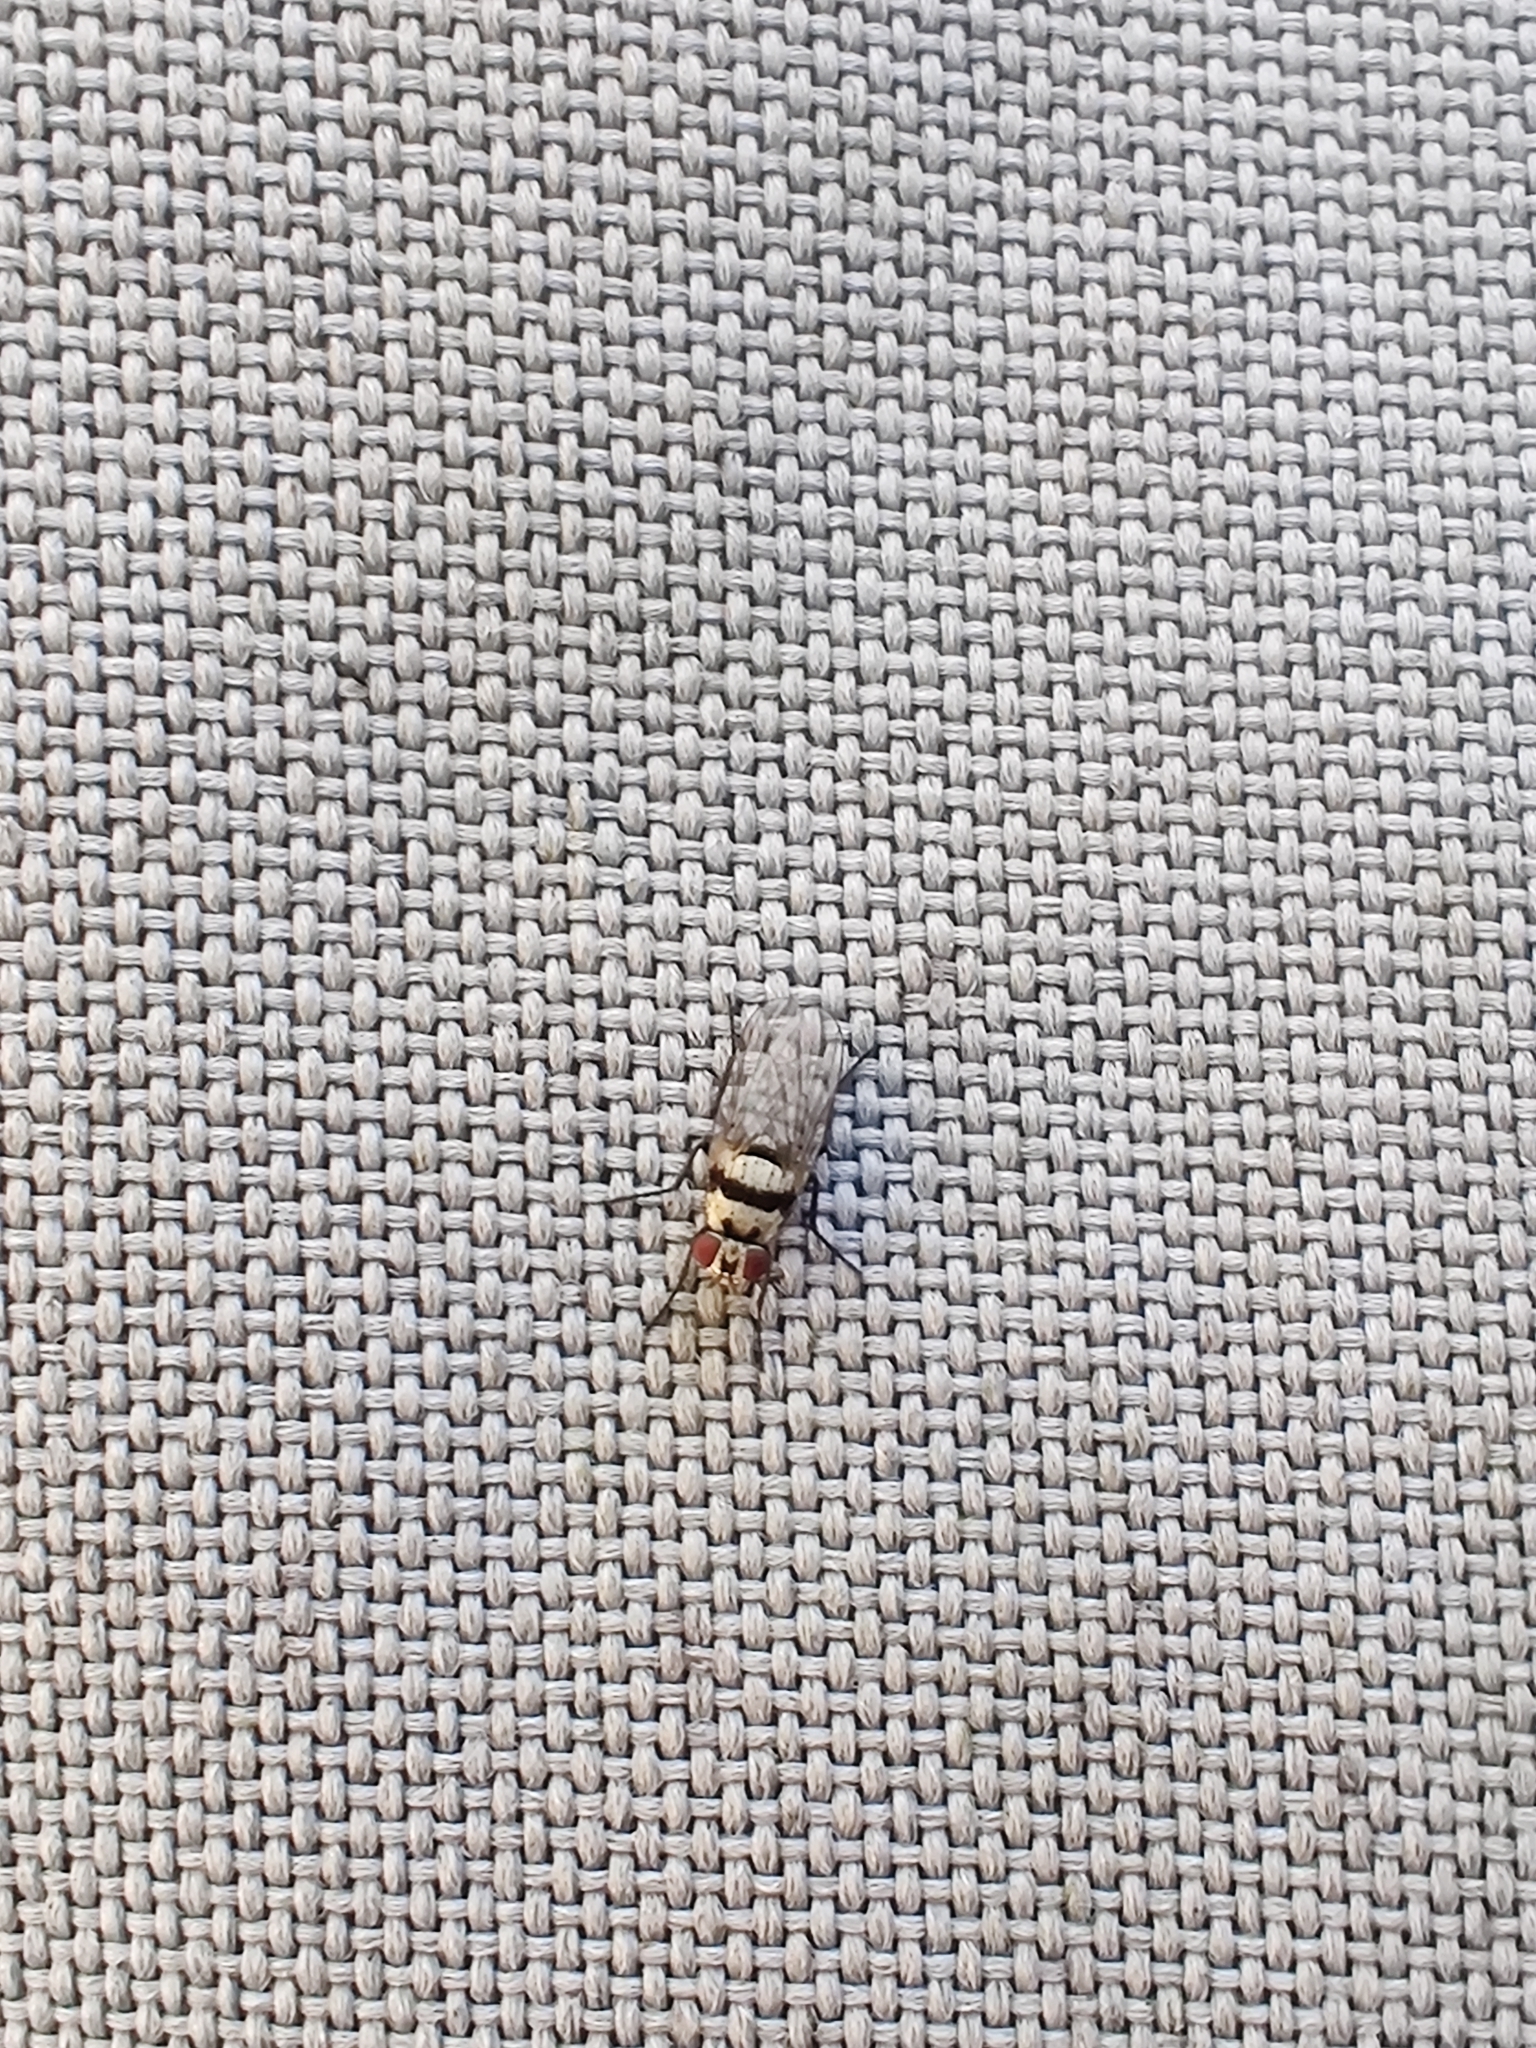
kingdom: Animalia
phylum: Arthropoda
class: Insecta
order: Diptera
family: Anthomyiidae
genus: Anthomyia
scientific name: Anthomyia vicarians
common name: Fly
